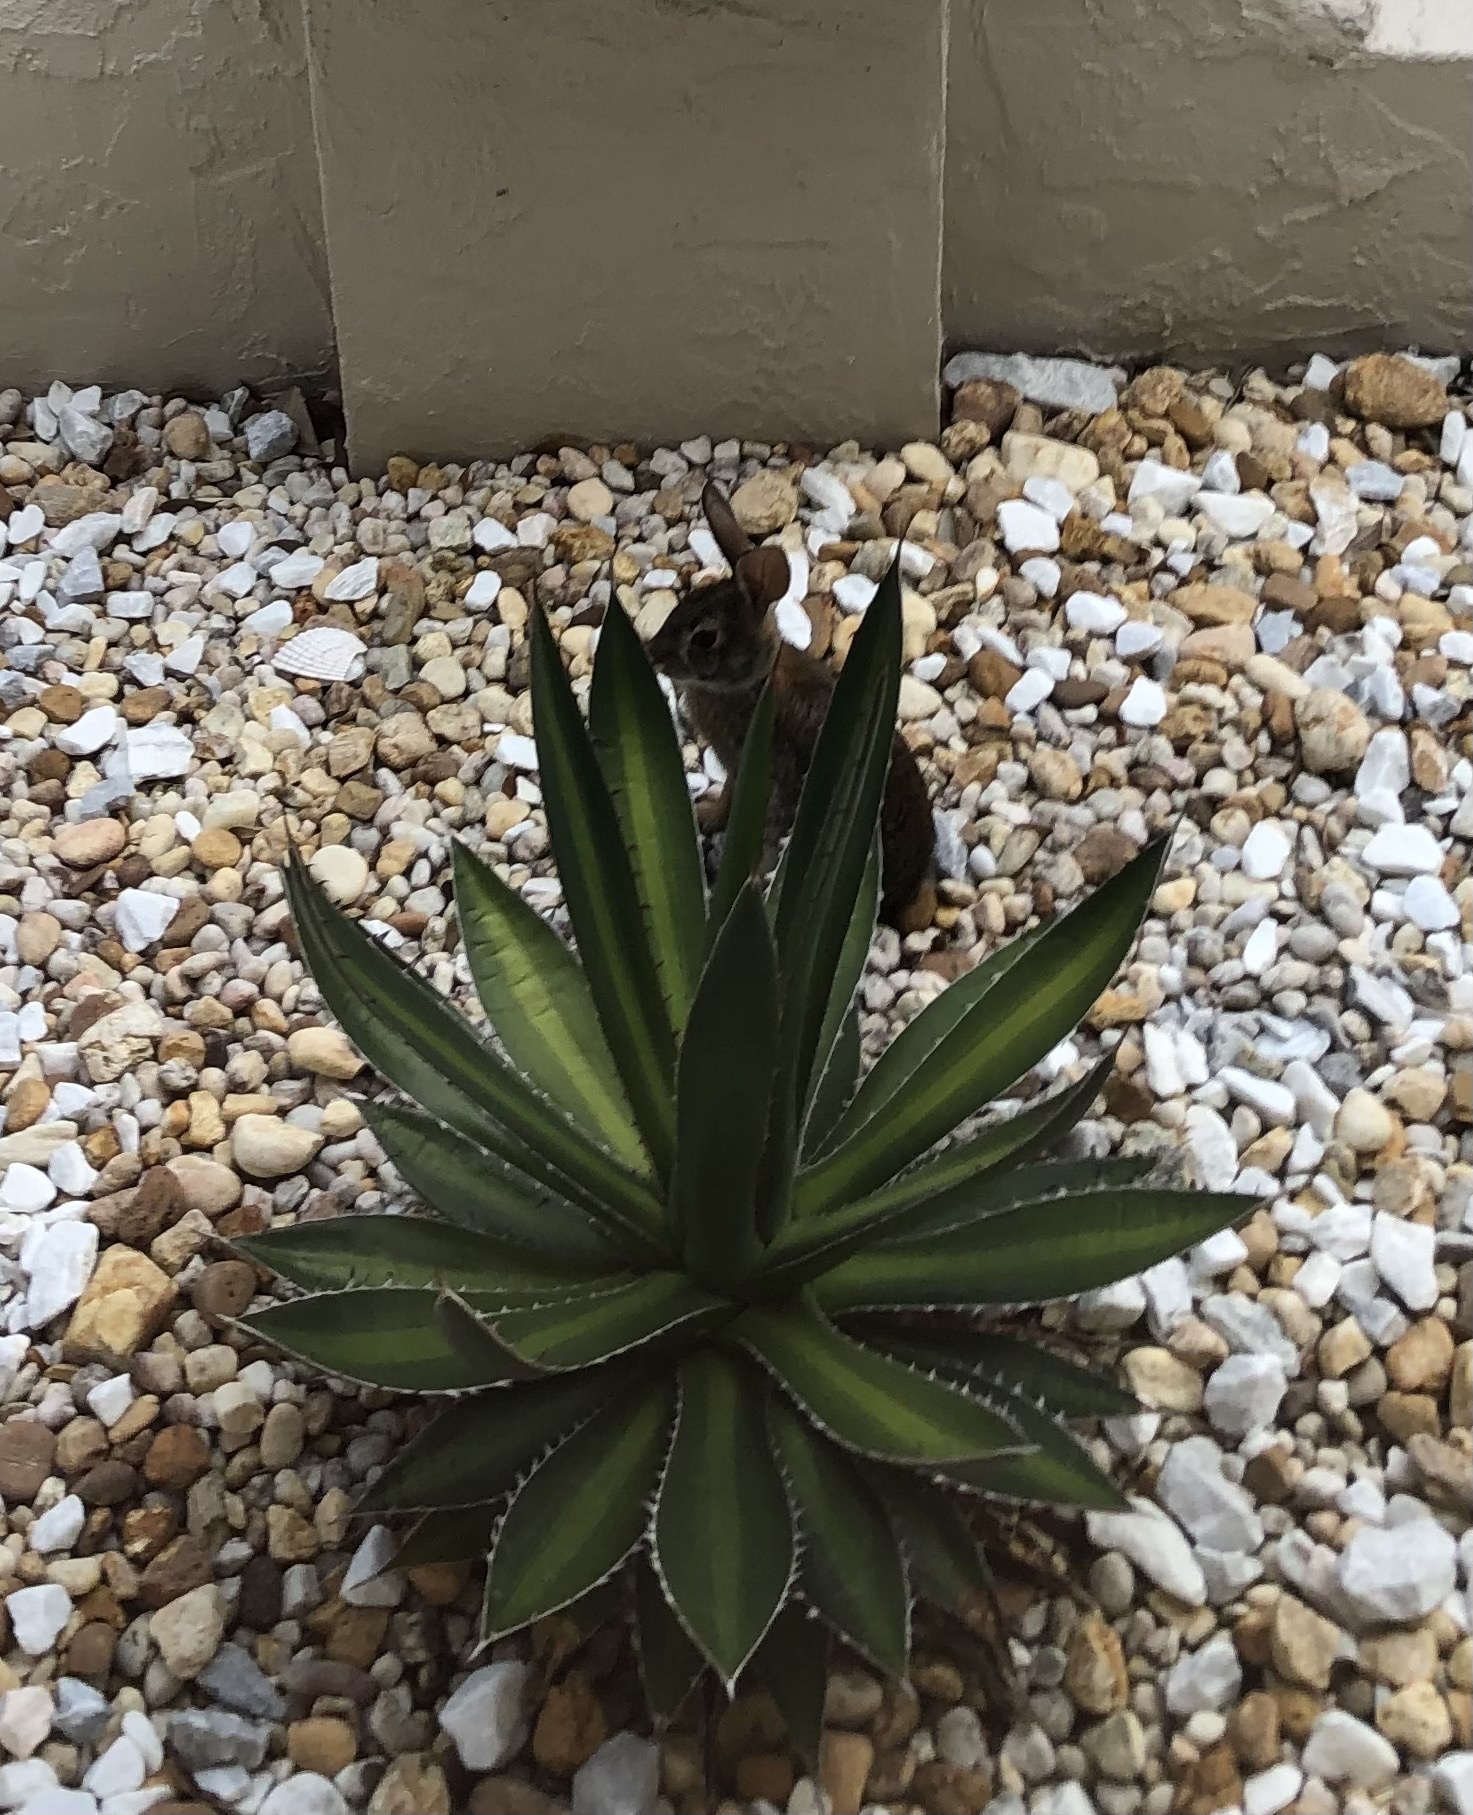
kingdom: Animalia
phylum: Chordata
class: Mammalia
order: Lagomorpha
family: Leporidae
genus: Sylvilagus
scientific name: Sylvilagus floridanus
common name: Eastern cottontail
